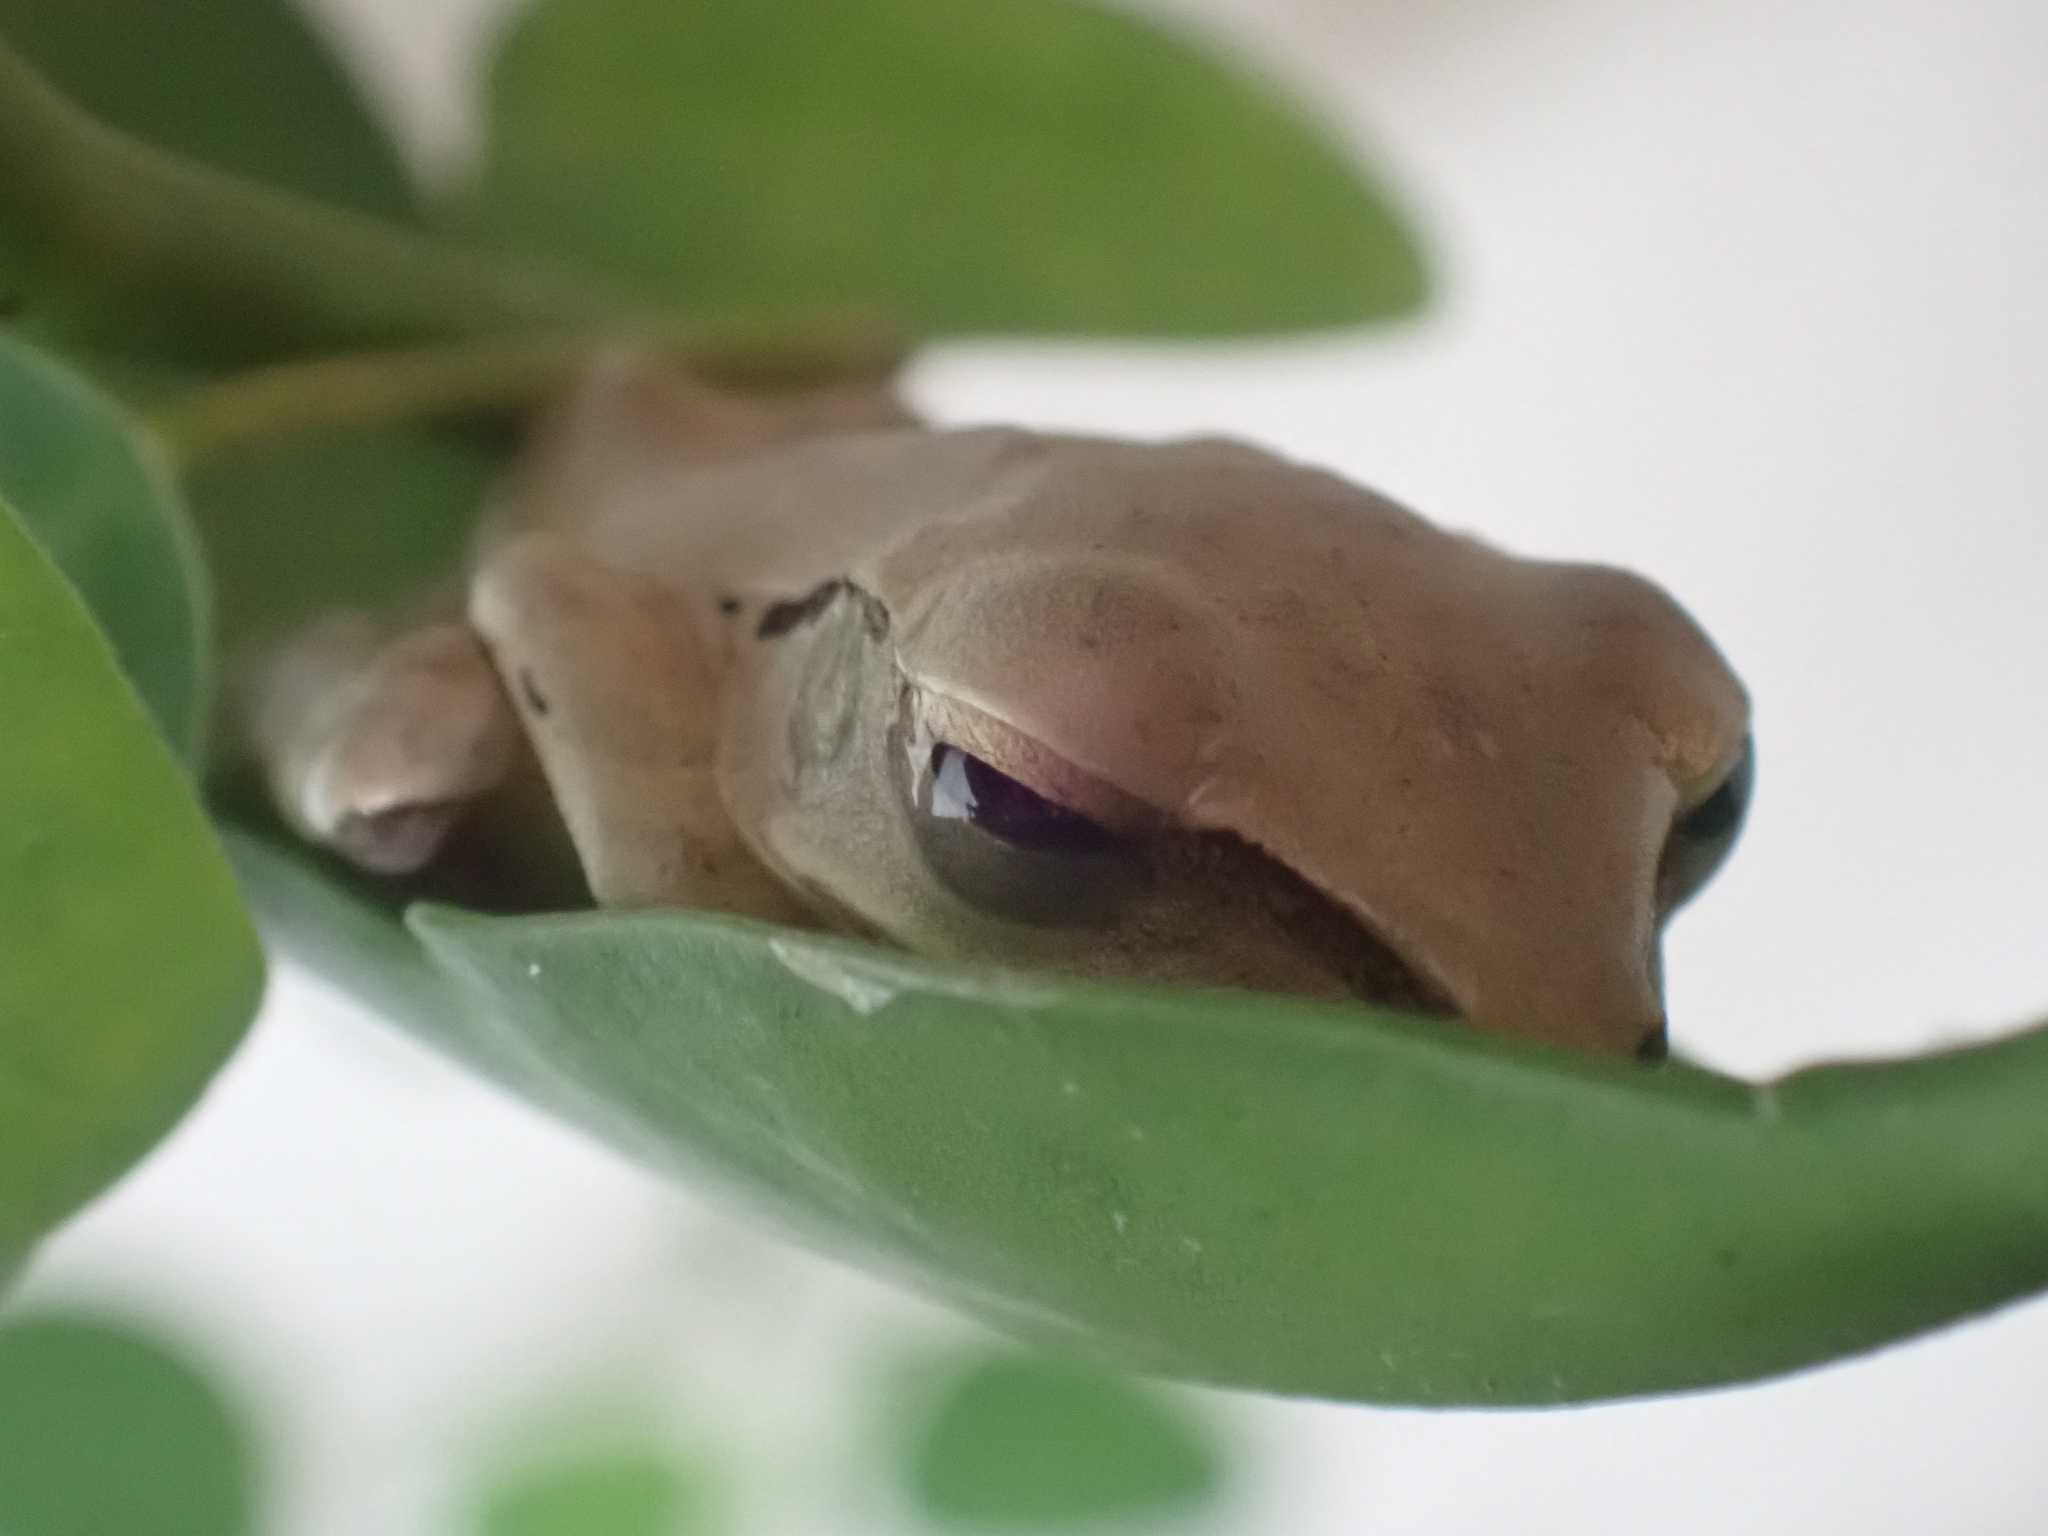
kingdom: Animalia
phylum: Chordata
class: Amphibia
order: Anura
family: Rhacophoridae
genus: Polypedates
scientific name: Polypedates megacephalus
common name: Hong kong whipping frog
